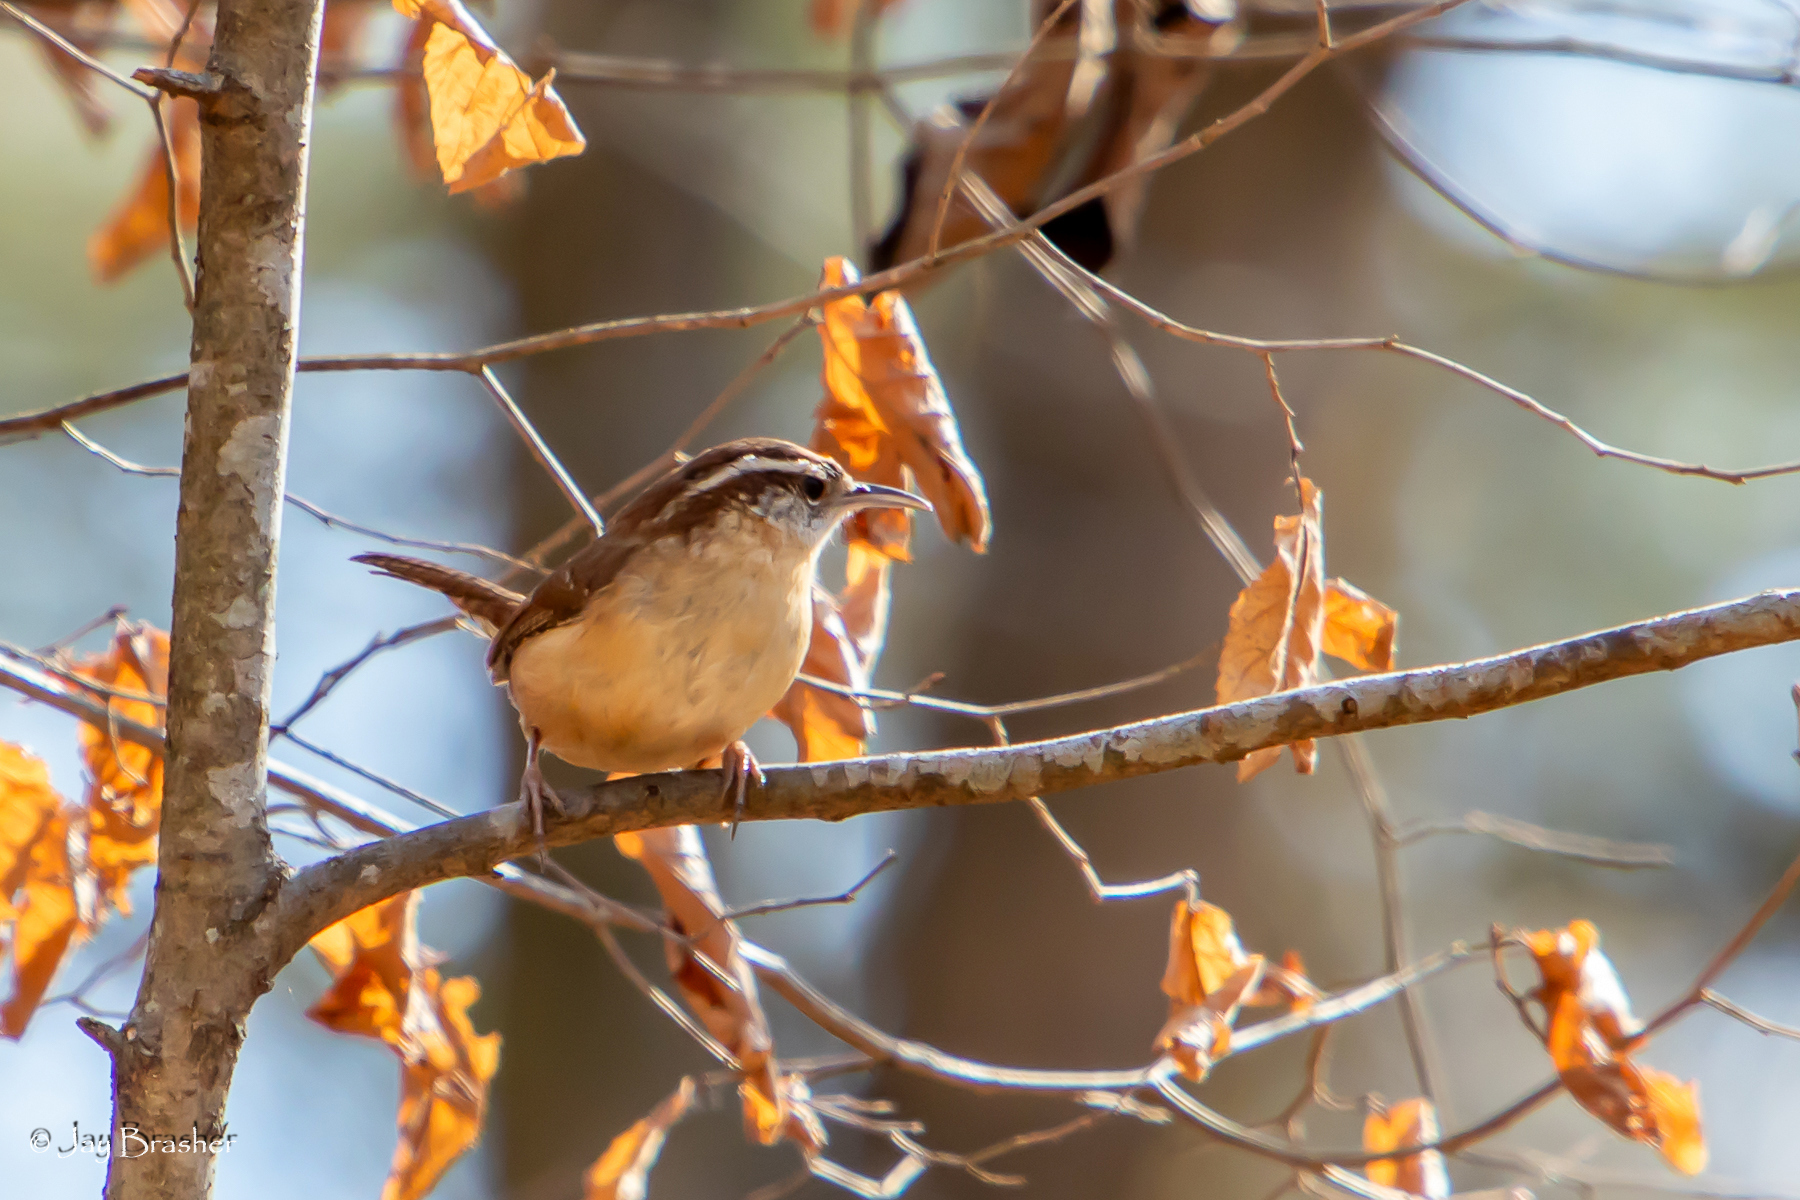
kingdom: Animalia
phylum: Chordata
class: Aves
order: Passeriformes
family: Troglodytidae
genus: Thryothorus
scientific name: Thryothorus ludovicianus
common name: Carolina wren
